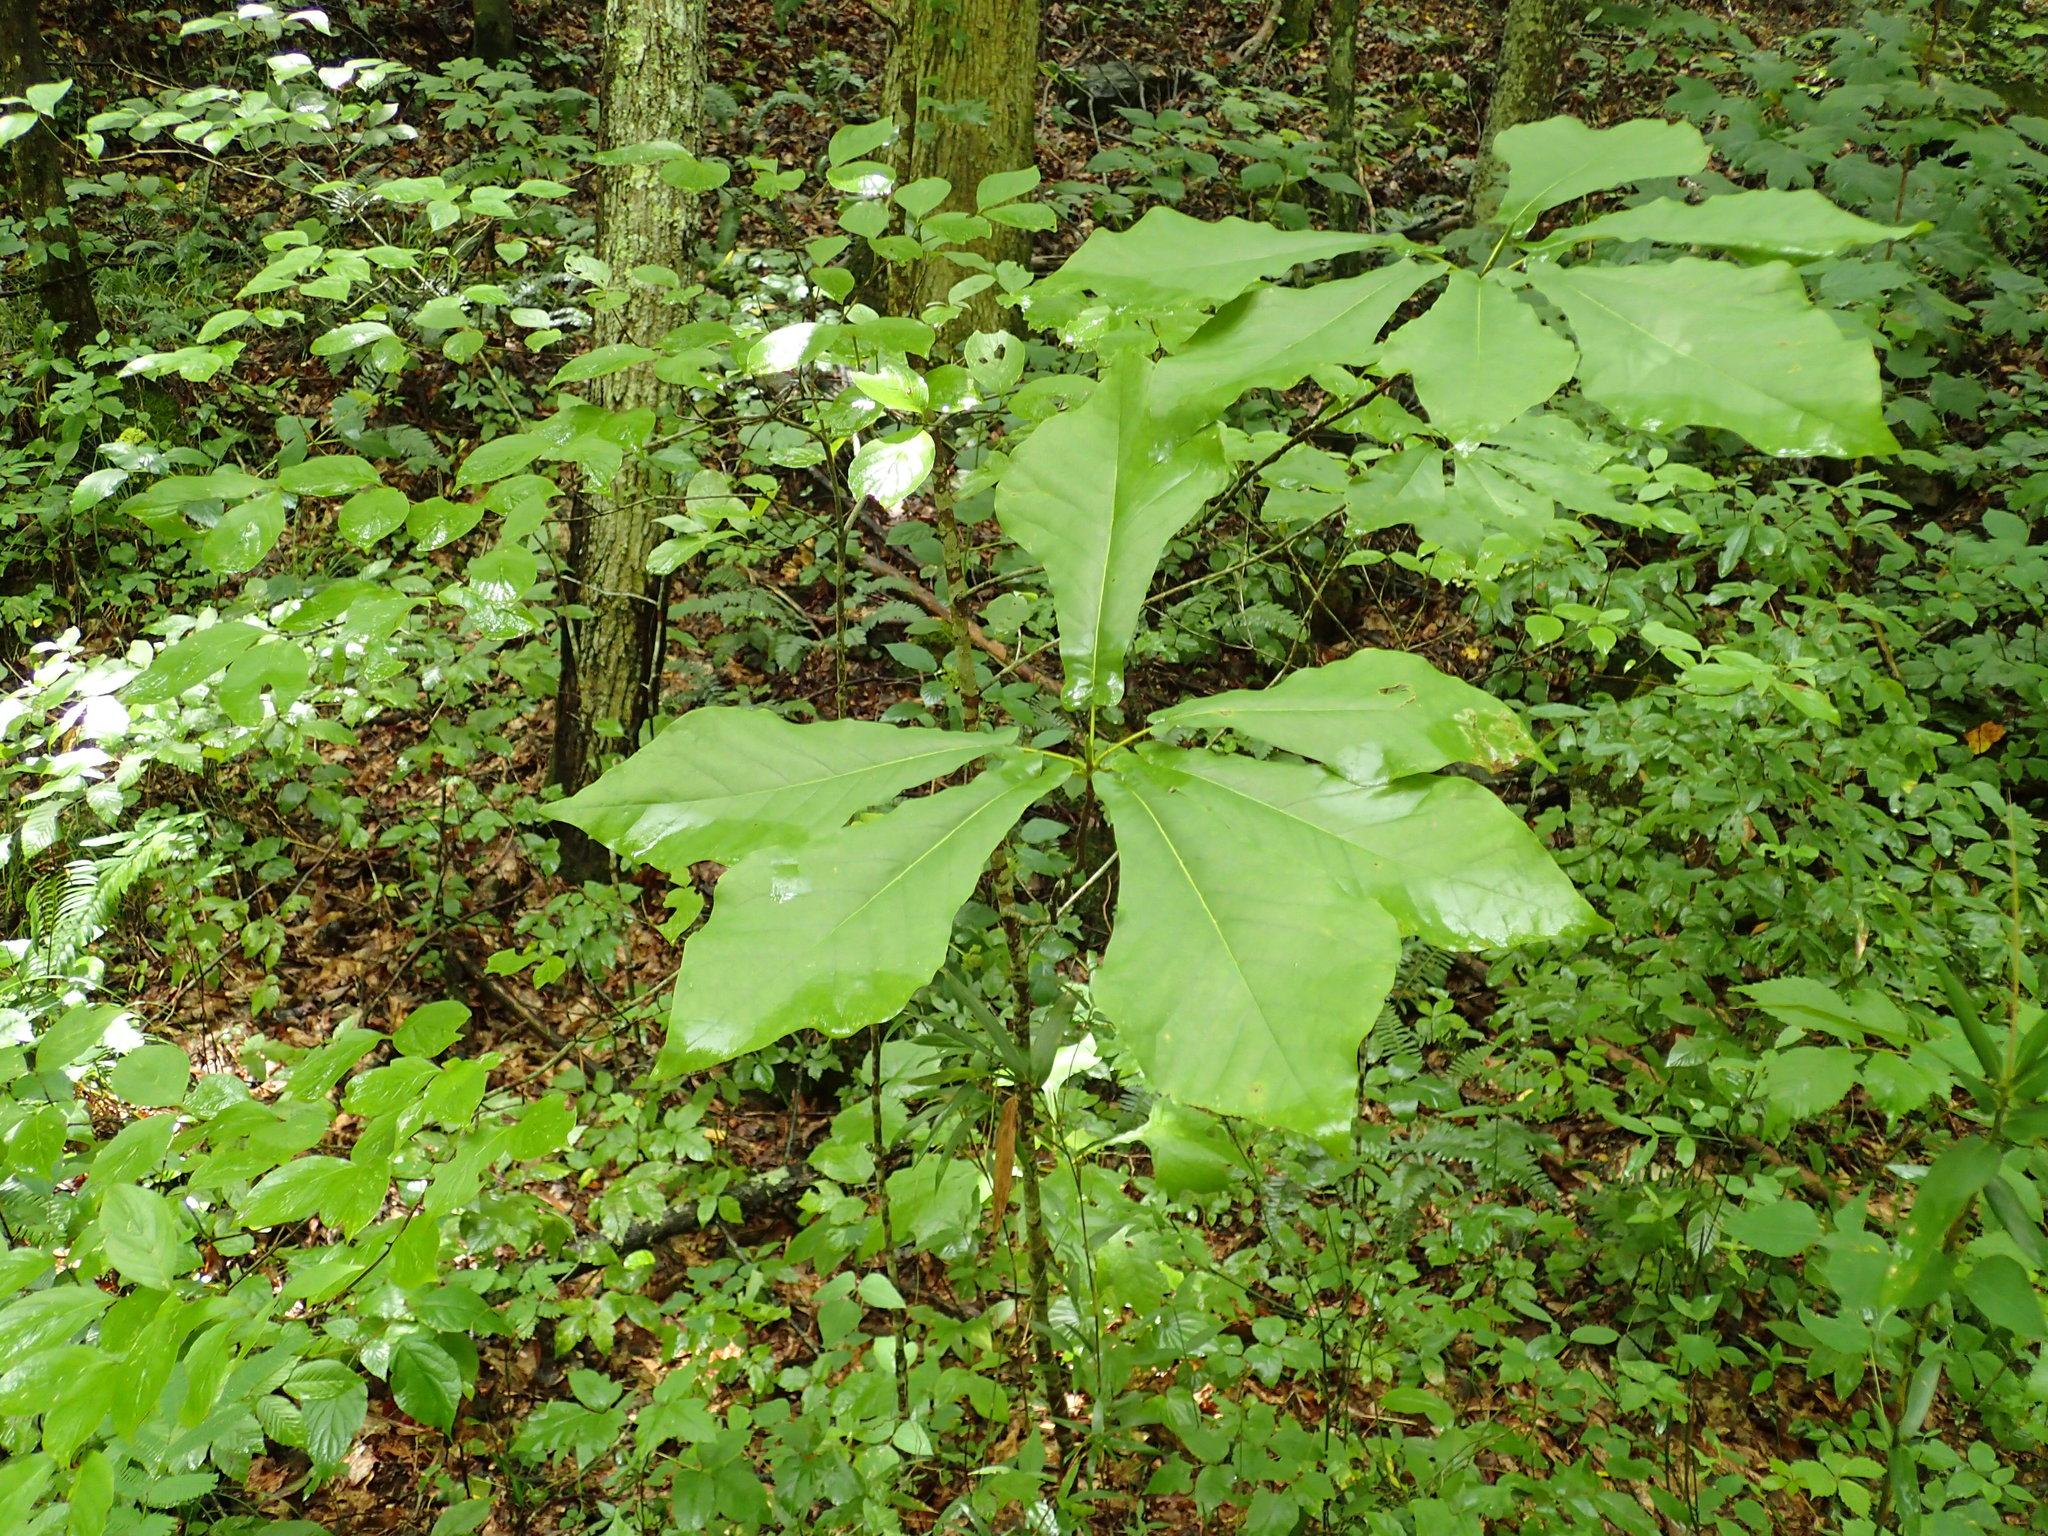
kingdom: Plantae
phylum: Tracheophyta
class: Magnoliopsida
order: Magnoliales
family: Magnoliaceae
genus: Magnolia
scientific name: Magnolia fraseri
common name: Fraser's magnolia
